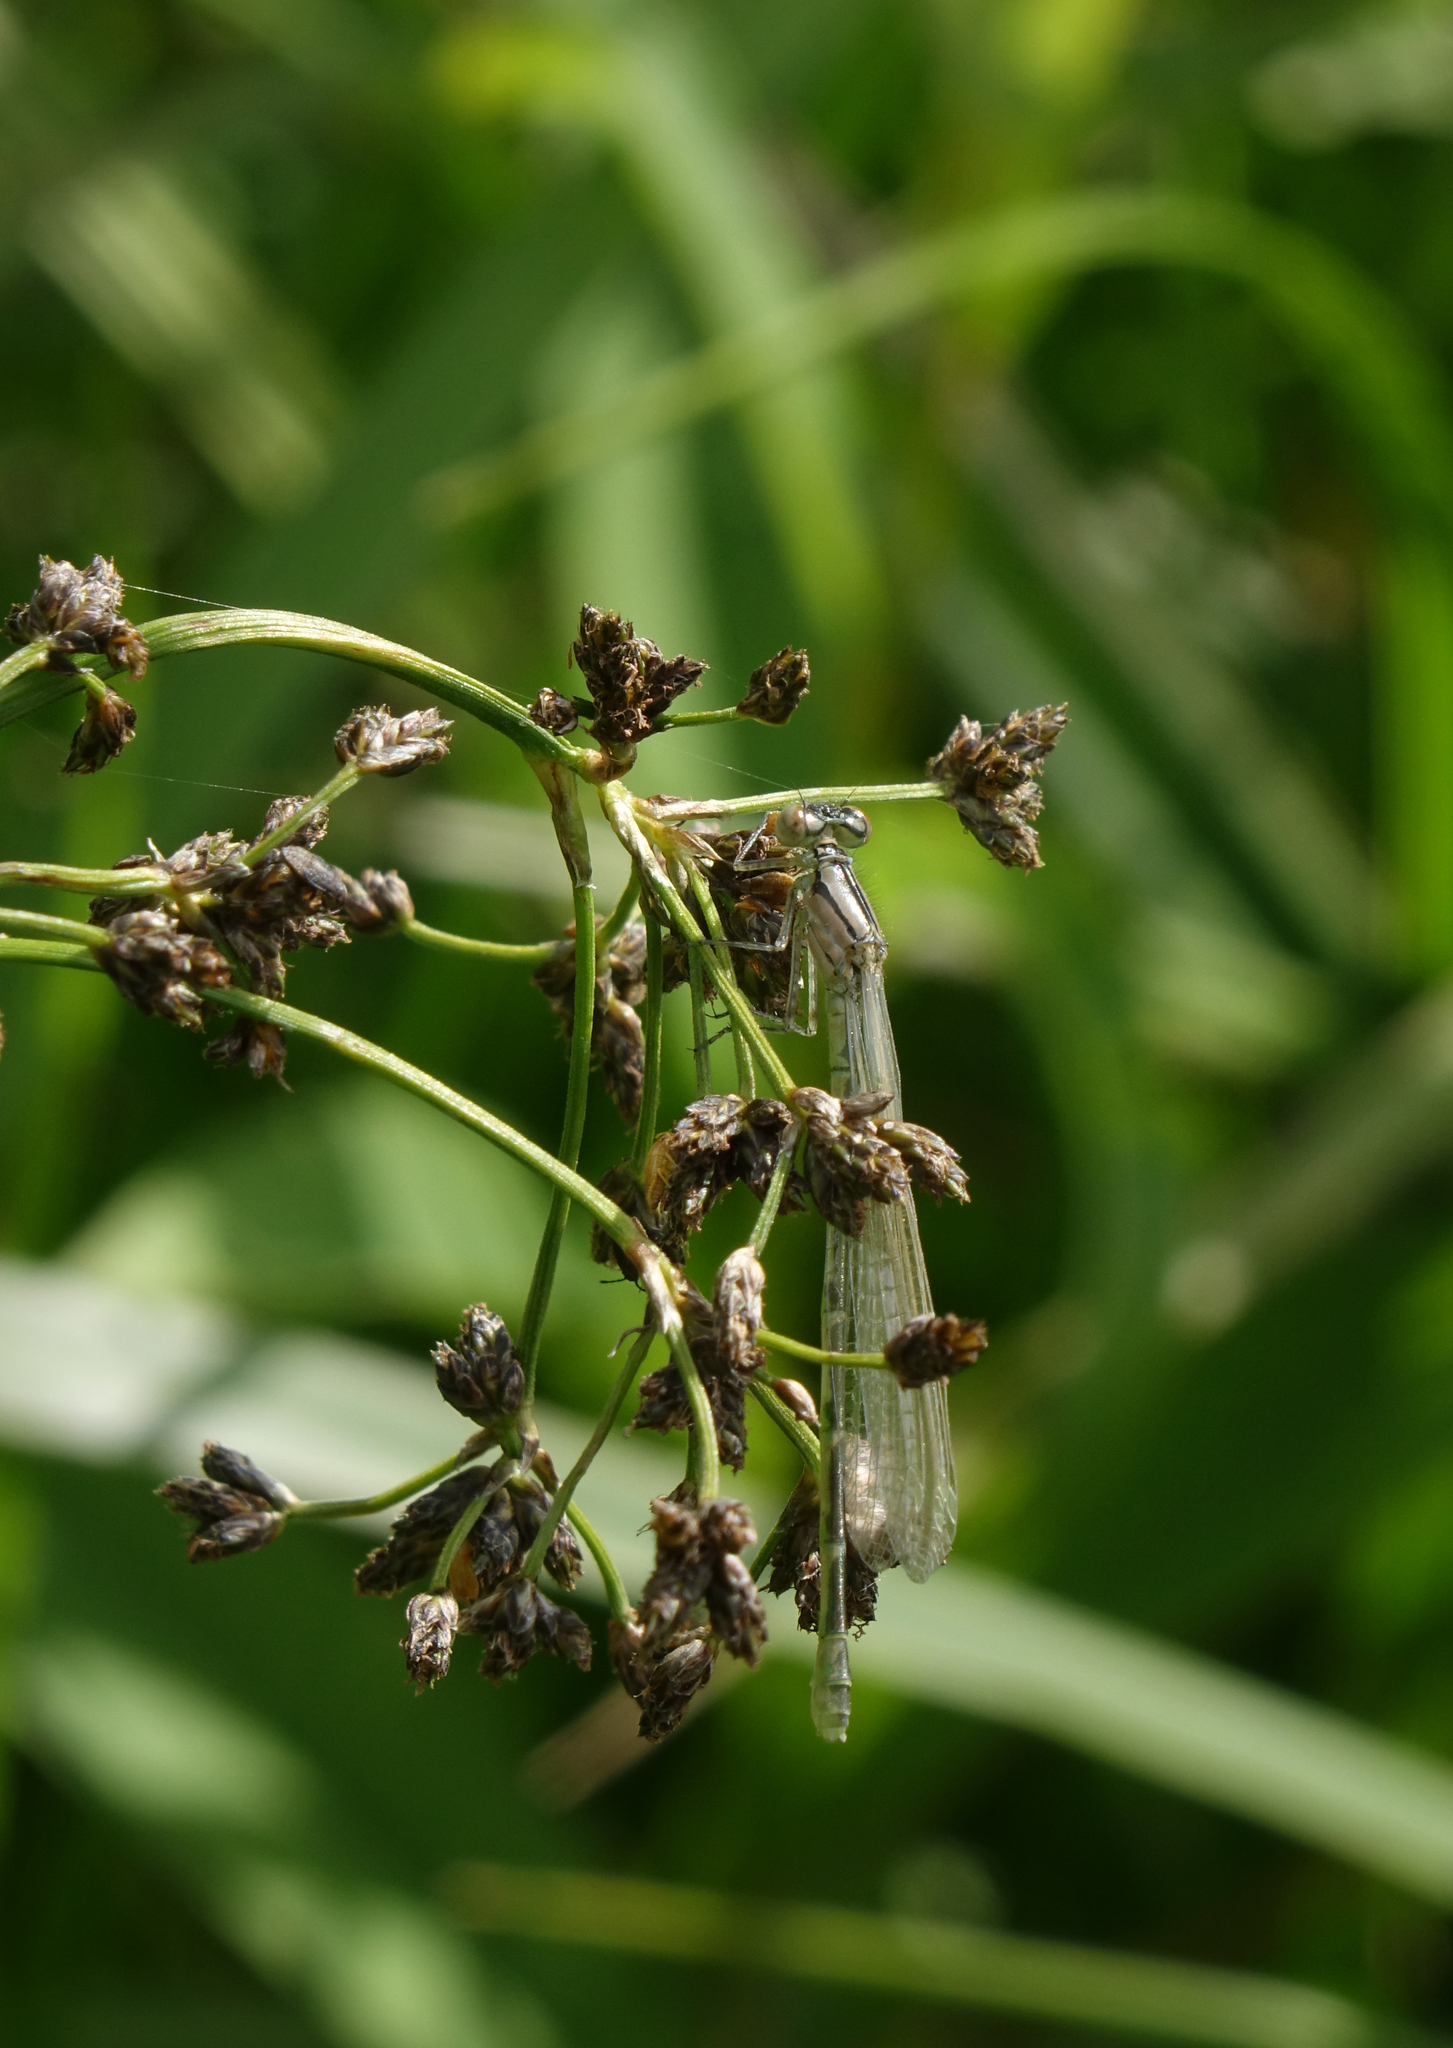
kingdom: Animalia
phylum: Arthropoda
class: Insecta
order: Odonata
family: Coenagrionidae
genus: Enallagma
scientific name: Enallagma cyathigerum
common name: Common blue damselfly
